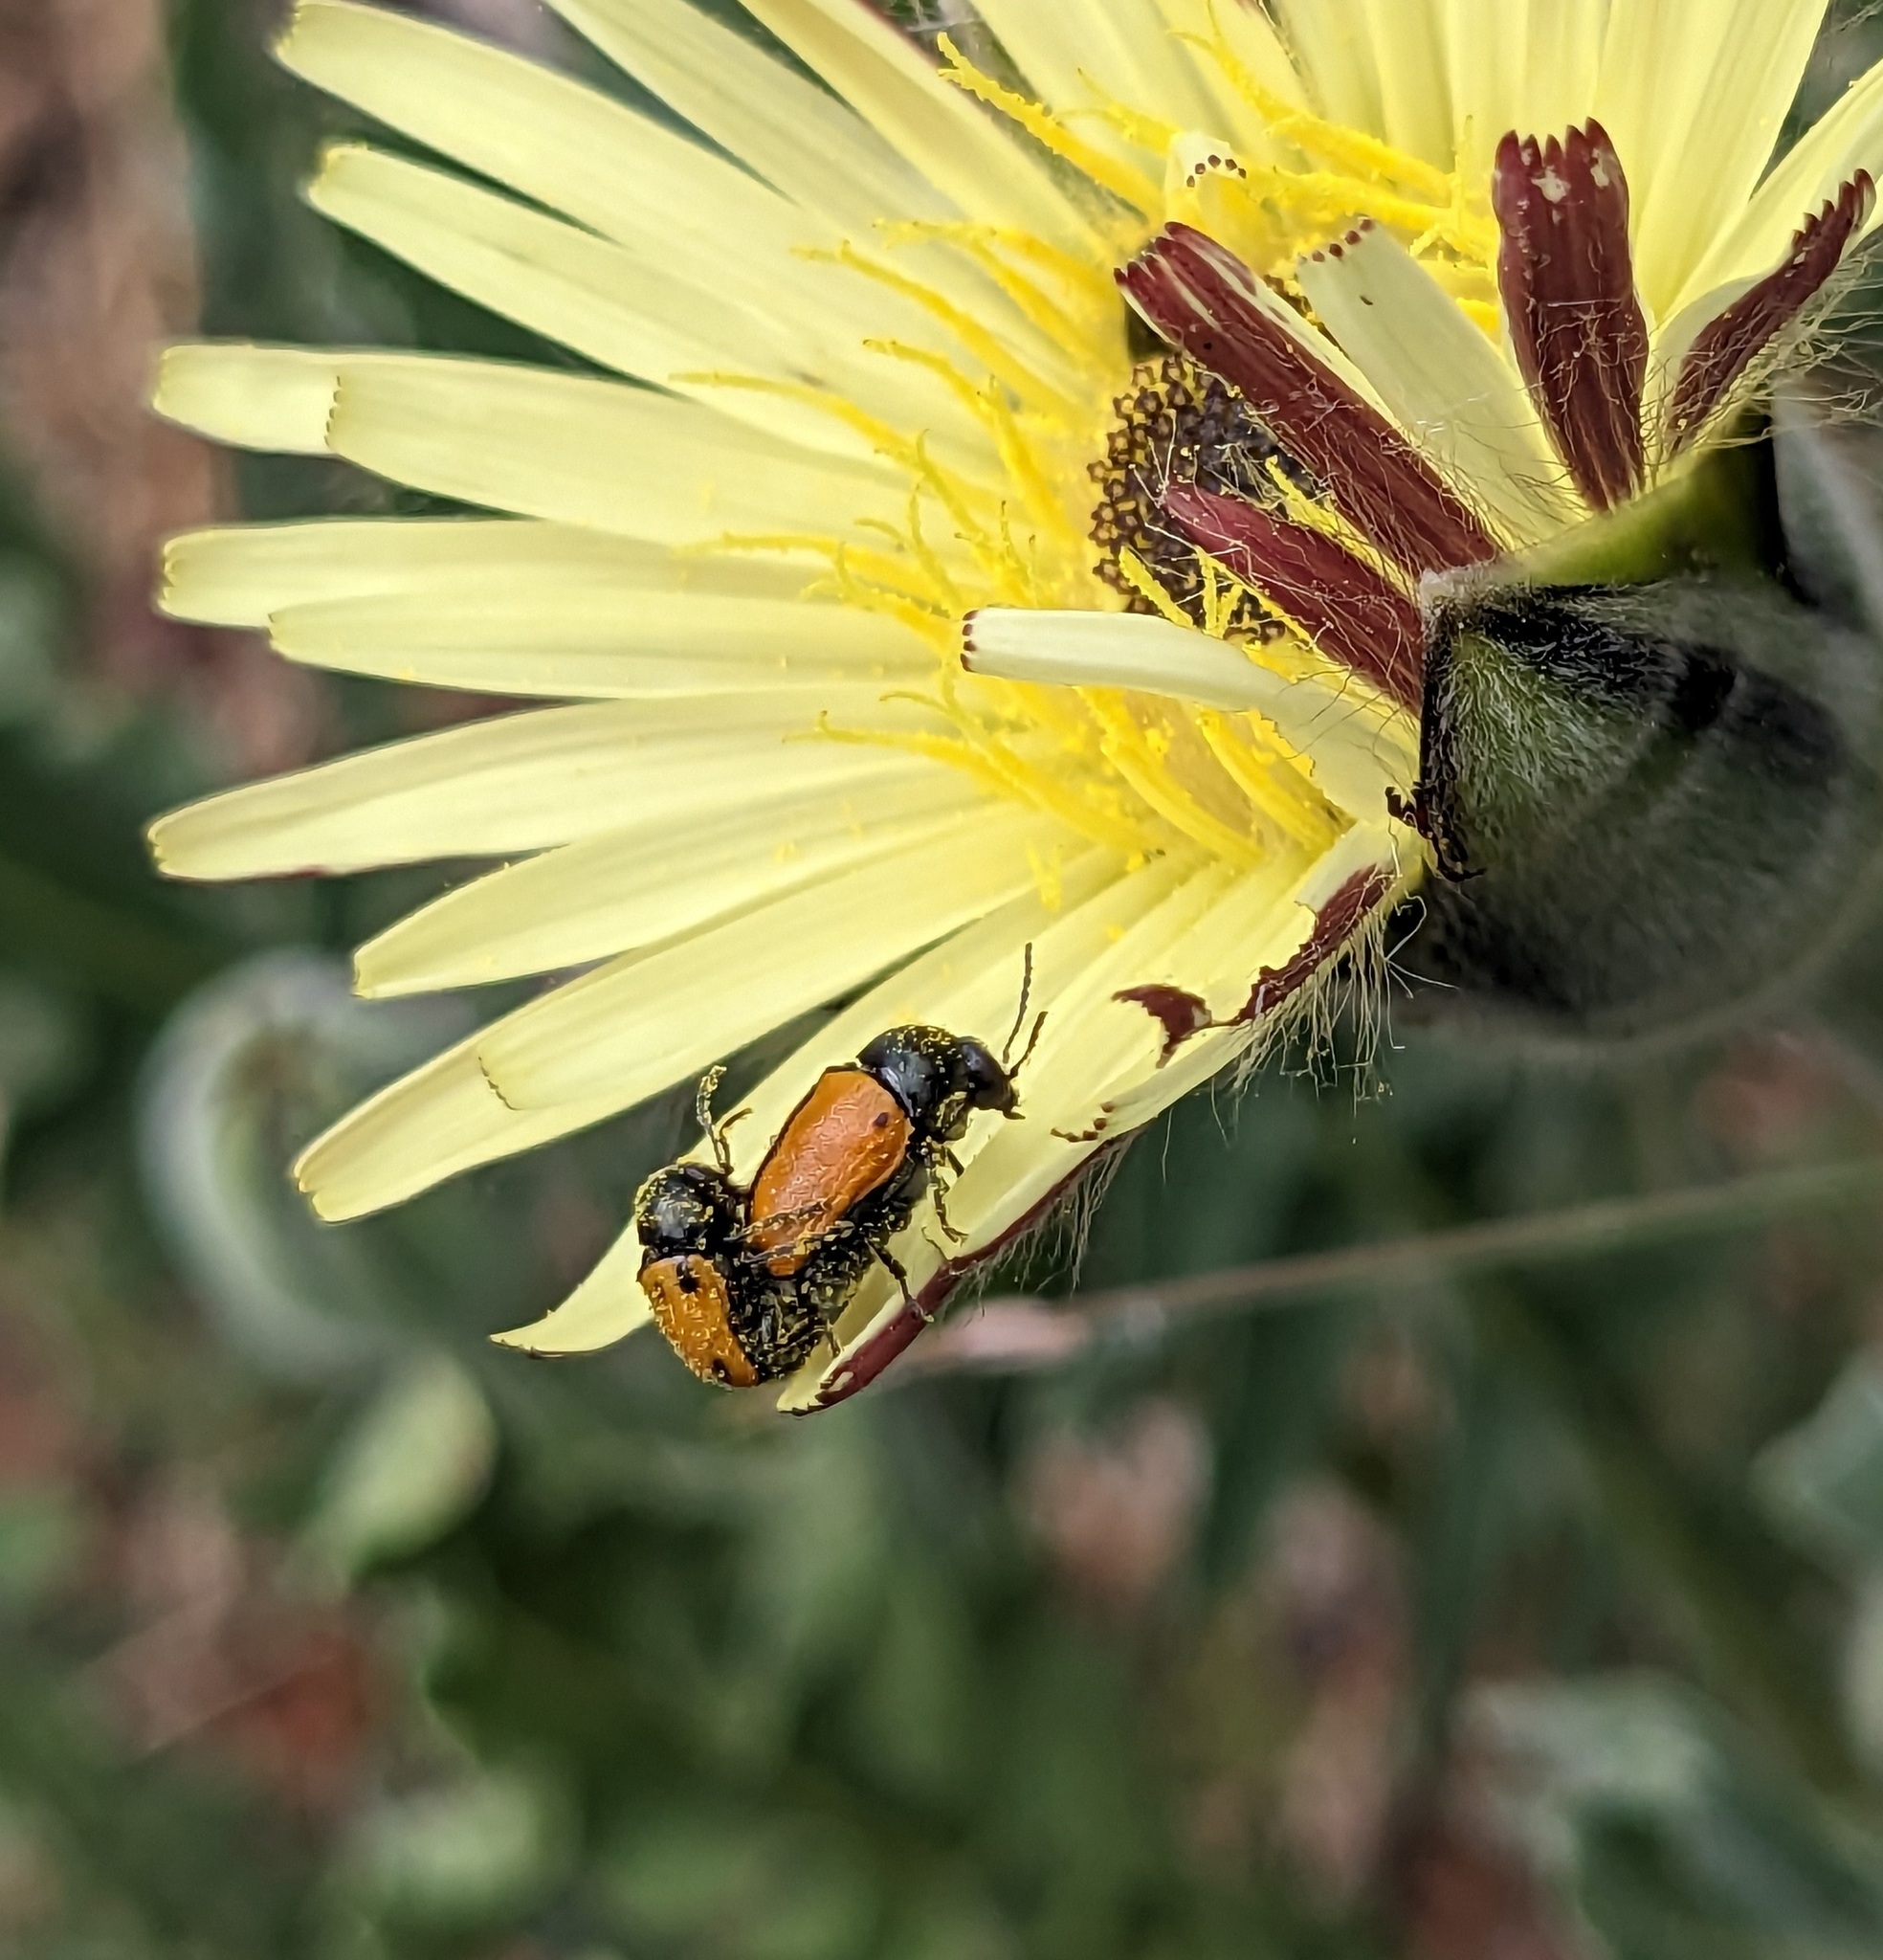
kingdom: Animalia
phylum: Arthropoda
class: Insecta
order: Coleoptera
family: Chrysomelidae
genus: Cryptocephalus
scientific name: Cryptocephalus rugicollis
